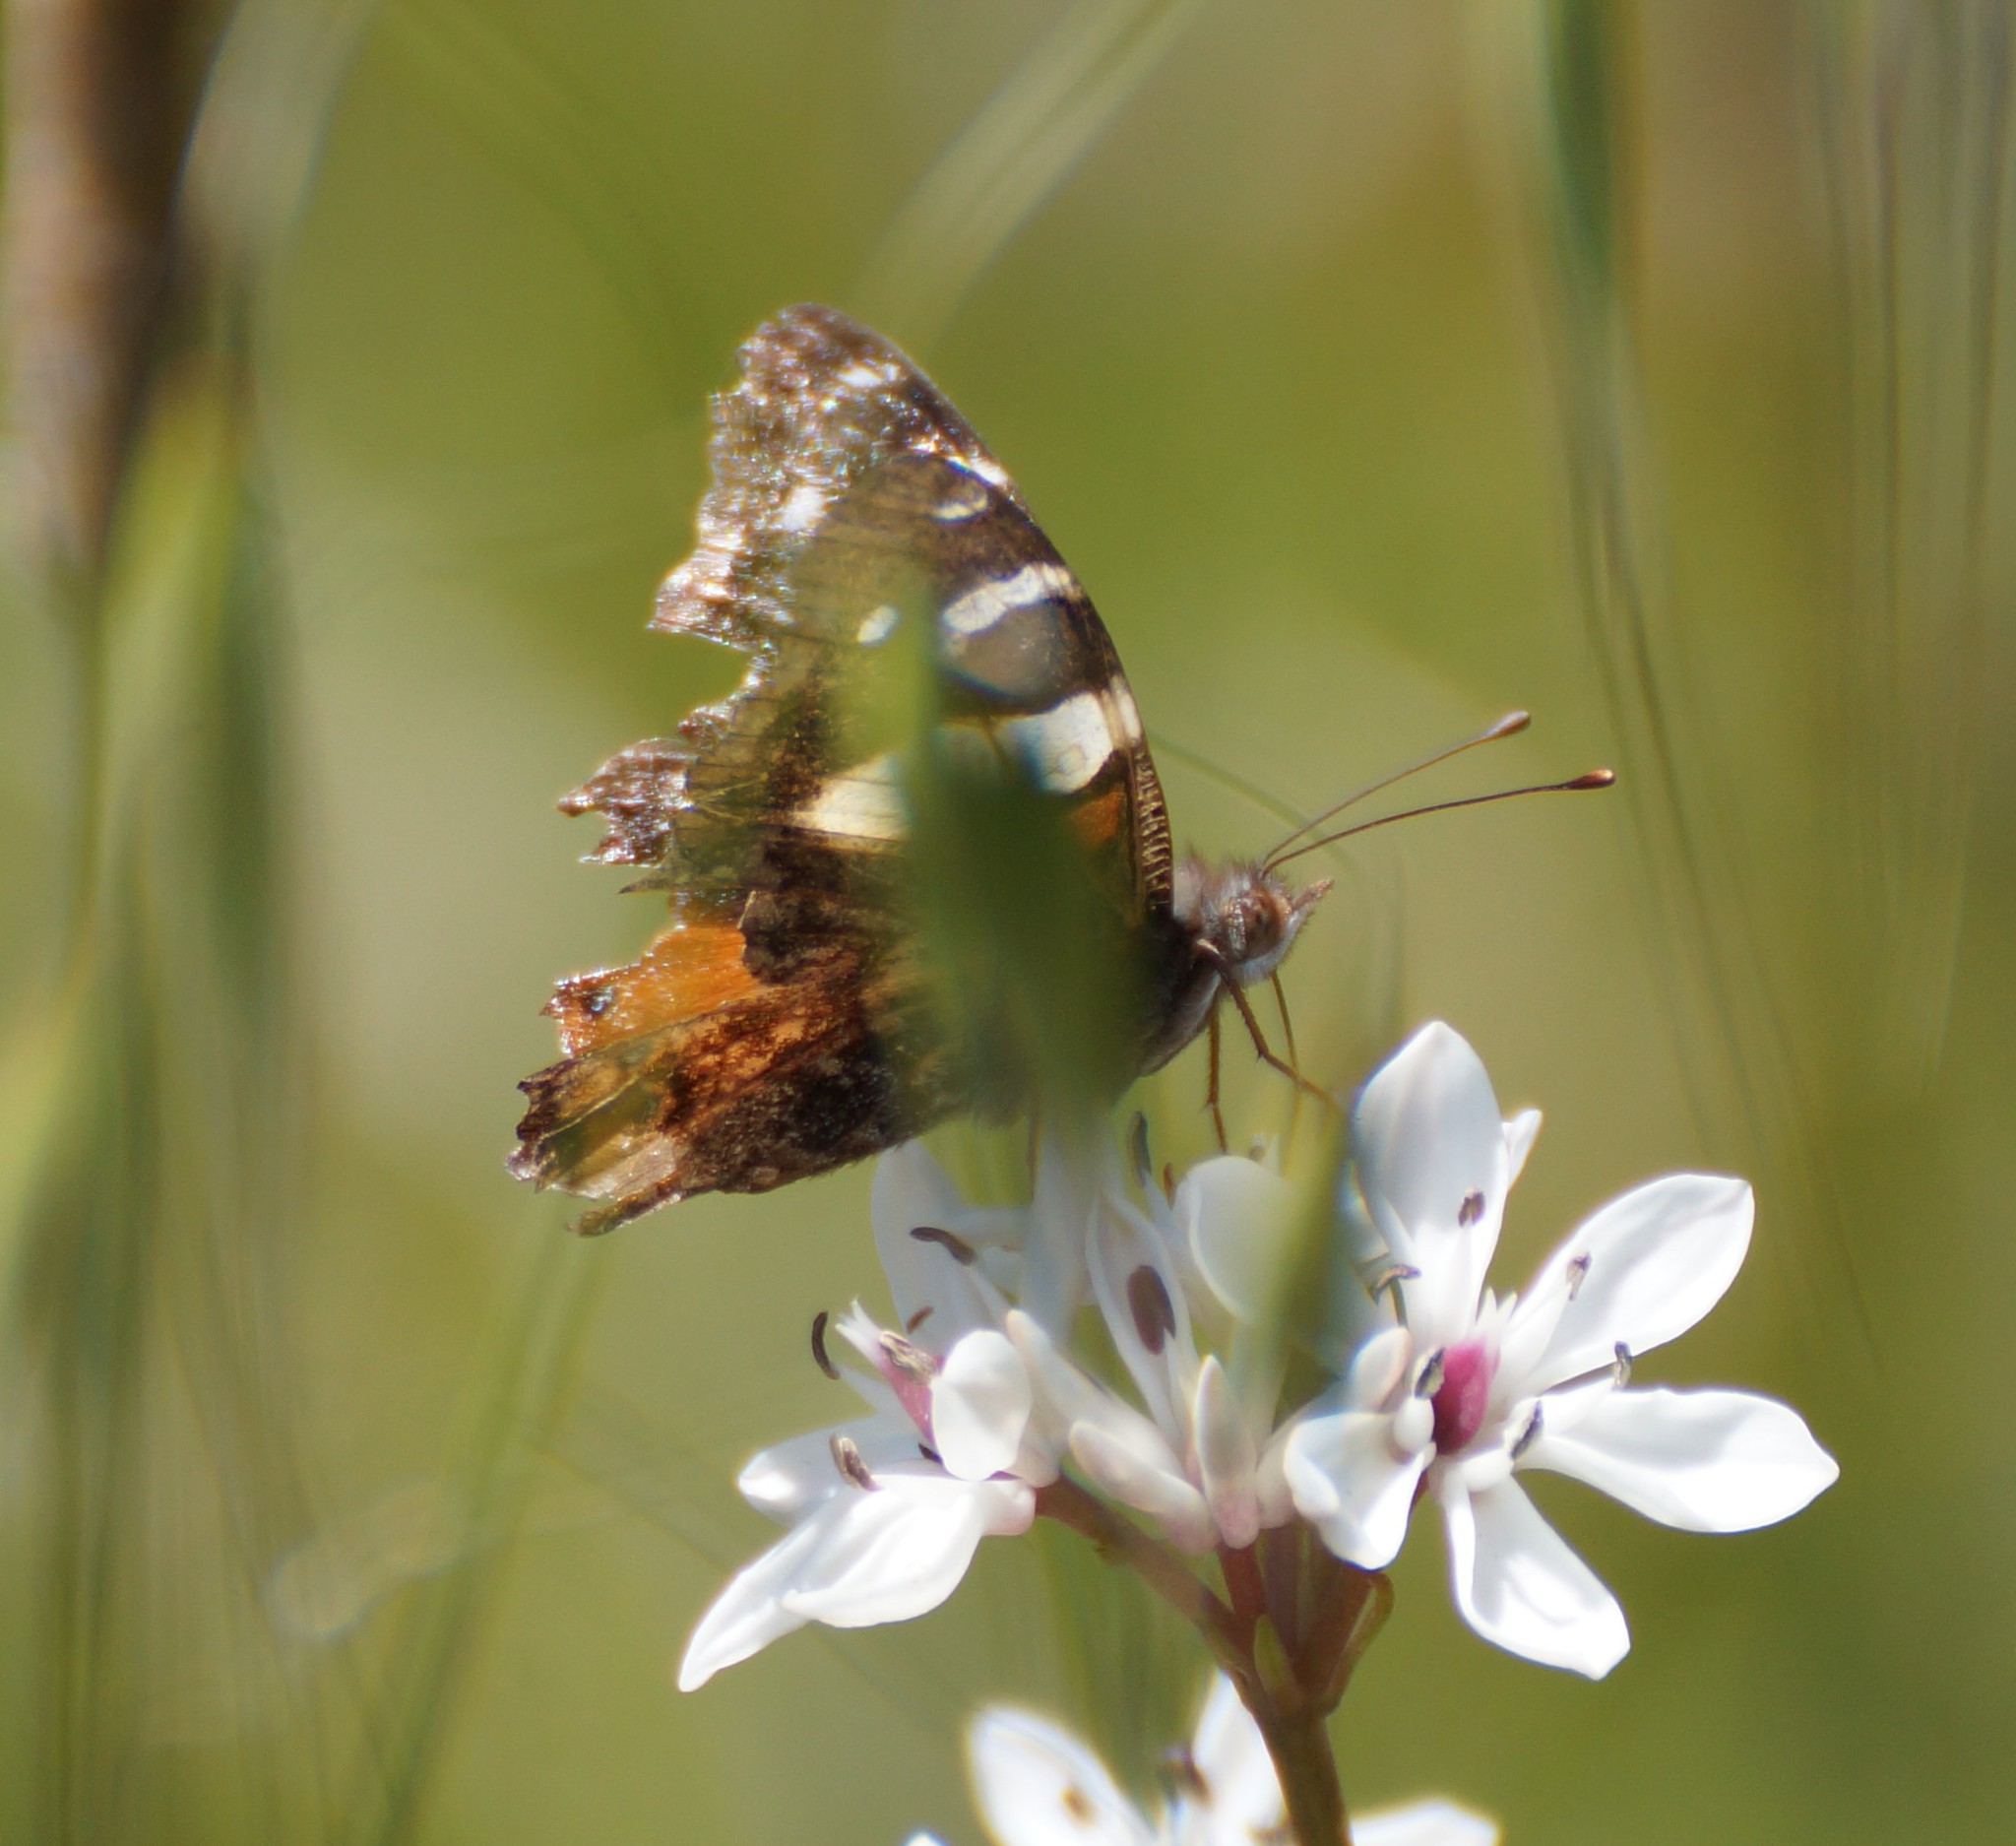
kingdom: Animalia
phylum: Arthropoda
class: Insecta
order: Lepidoptera
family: Nymphalidae
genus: Vanessa
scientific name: Vanessa itea
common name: Yellow admiral
